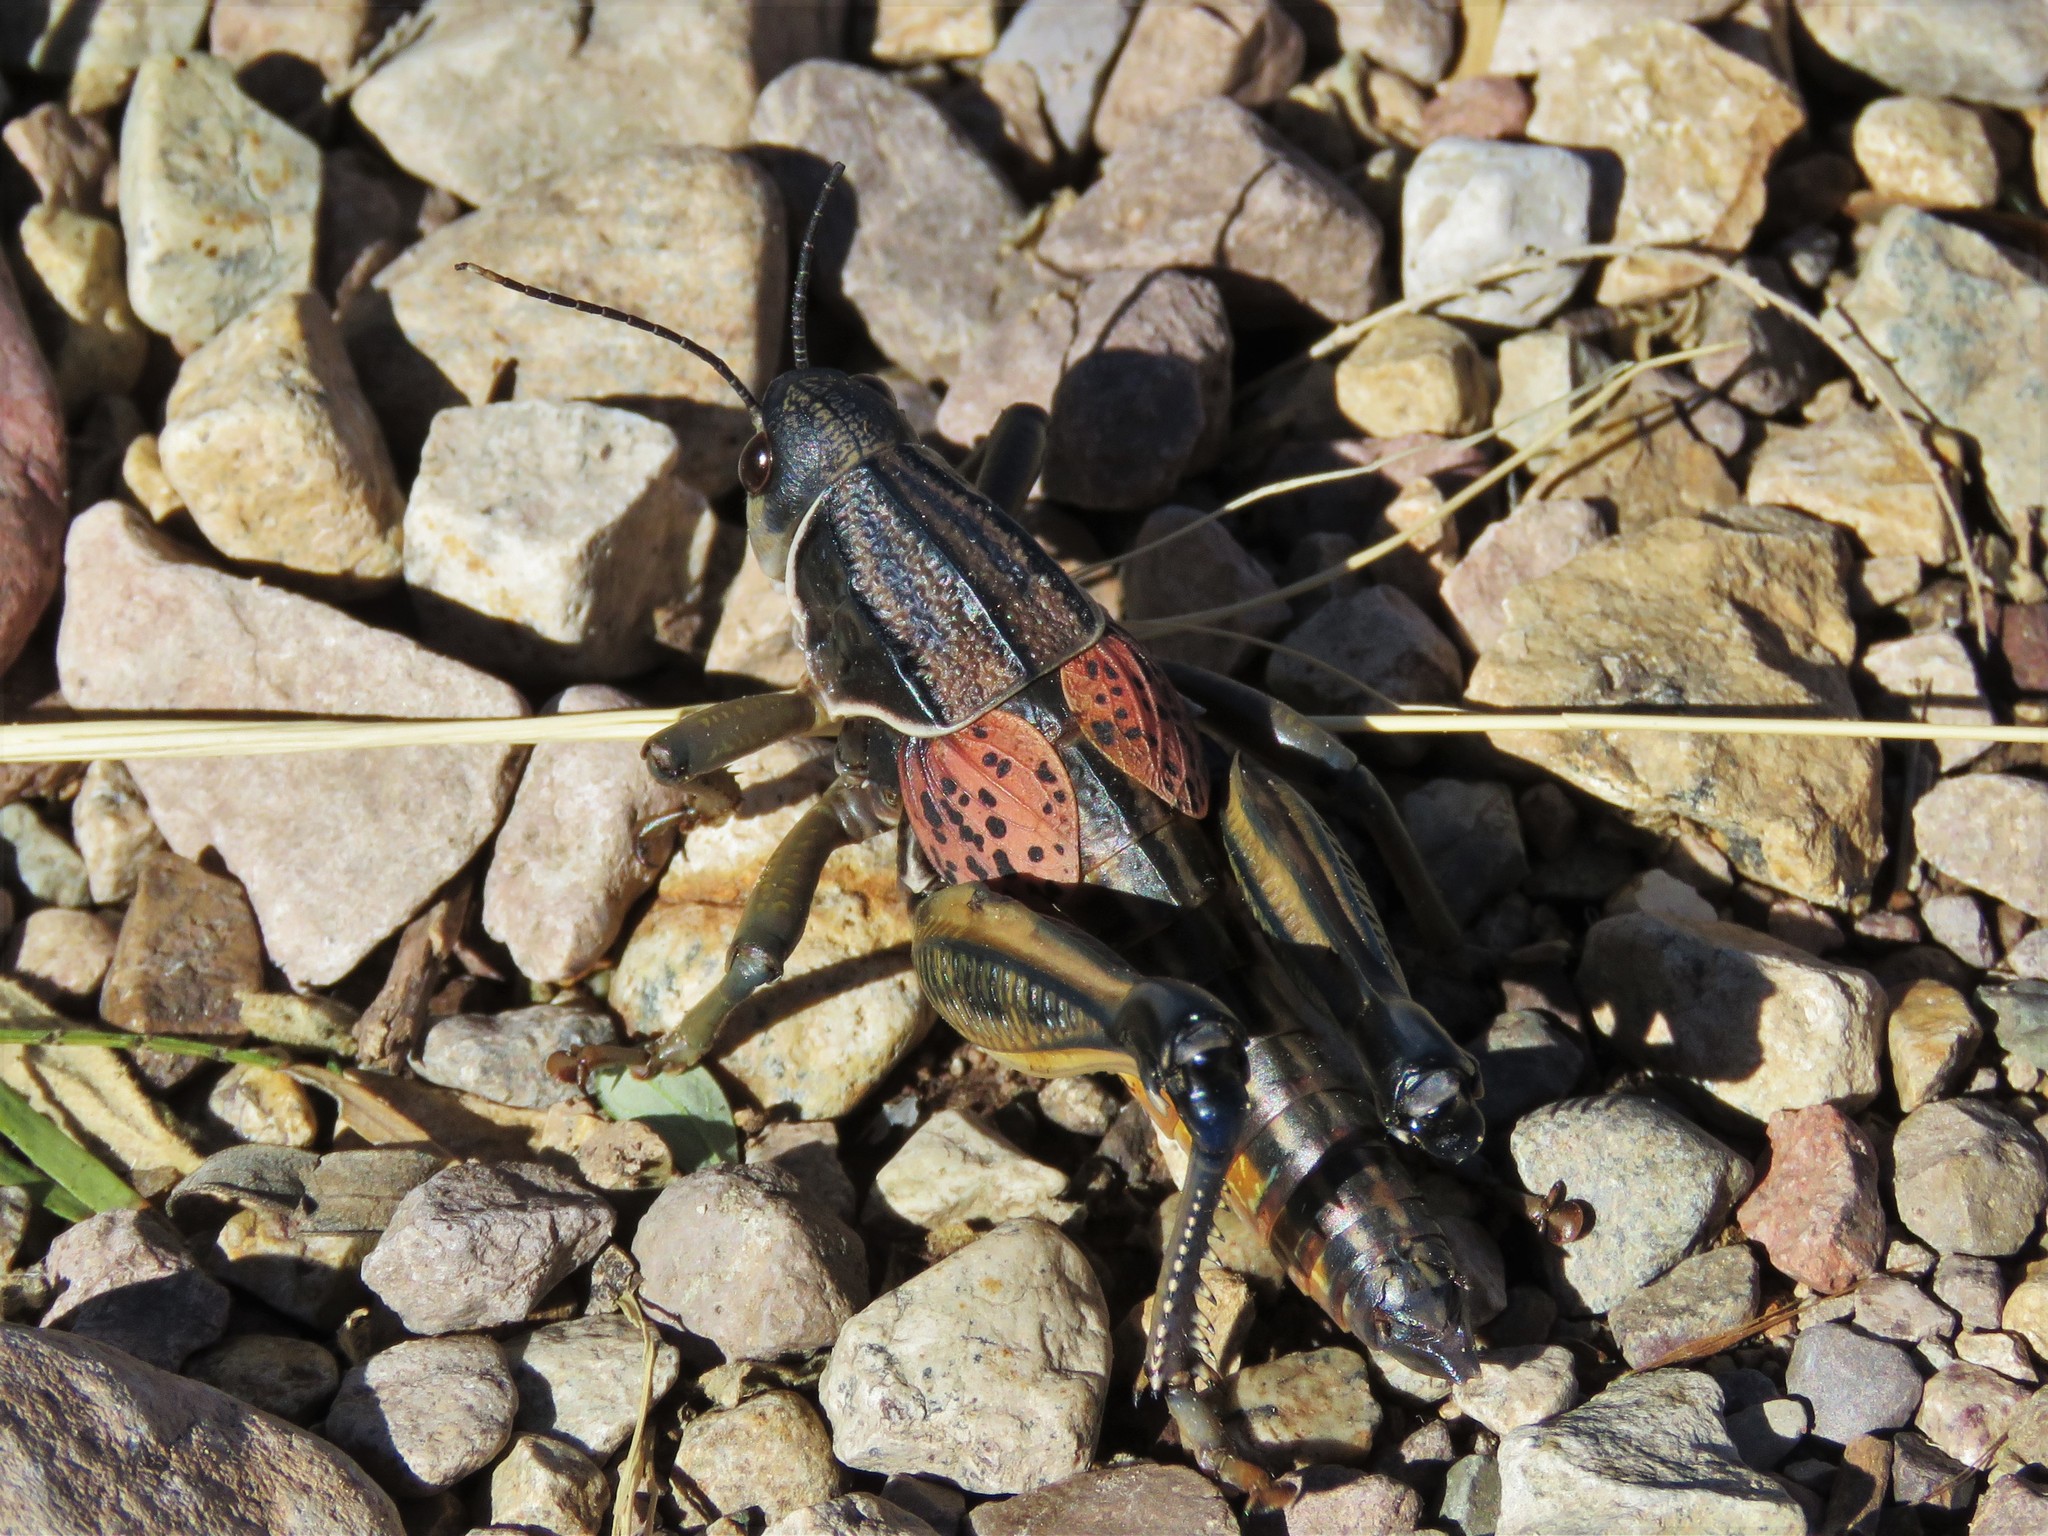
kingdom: Animalia
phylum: Arthropoda
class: Insecta
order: Orthoptera
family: Romaleidae
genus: Brachystola
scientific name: Brachystola magna
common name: Plains lubber grasshopper
